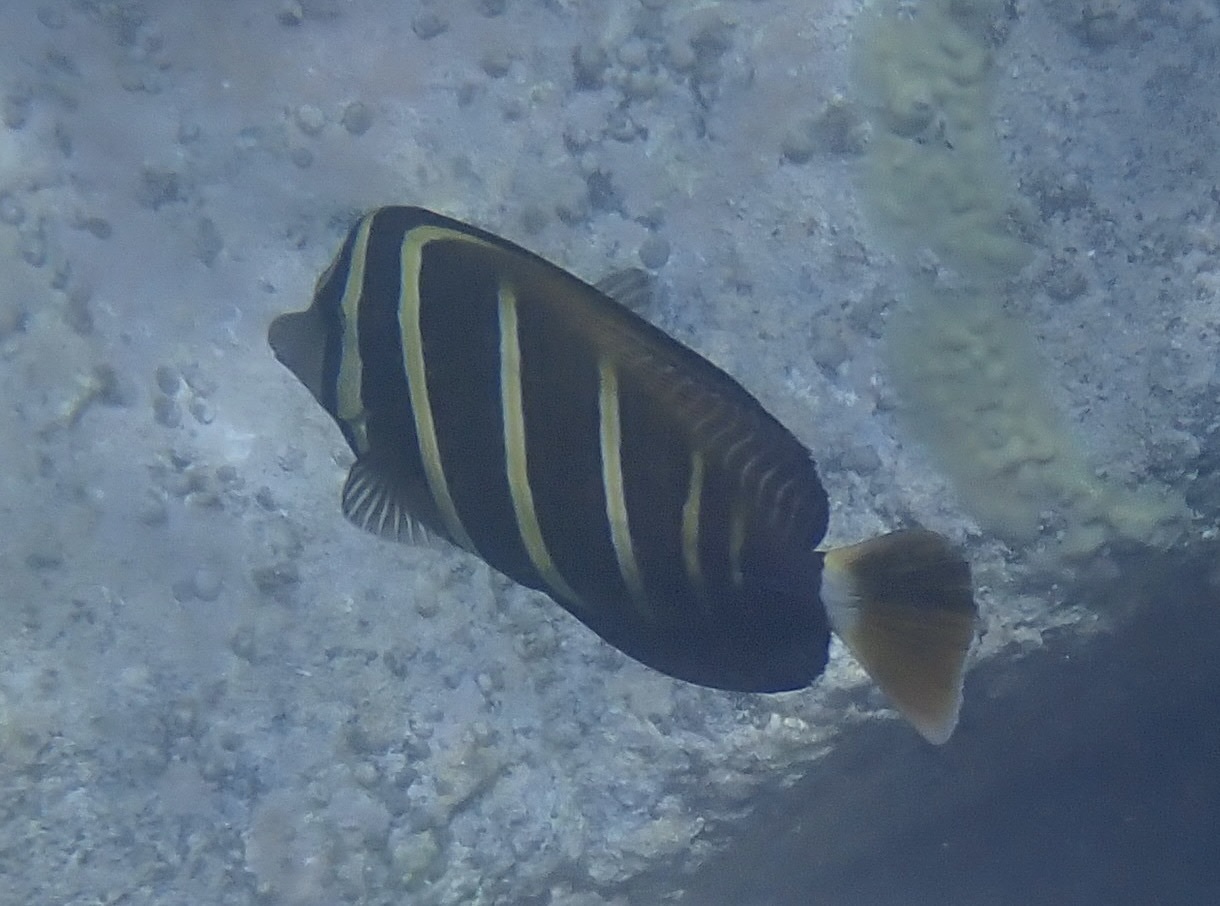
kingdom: Animalia
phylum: Chordata
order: Perciformes
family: Acanthuridae
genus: Zebrasoma
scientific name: Zebrasoma veliferum
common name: Sailfin surgeonfish
